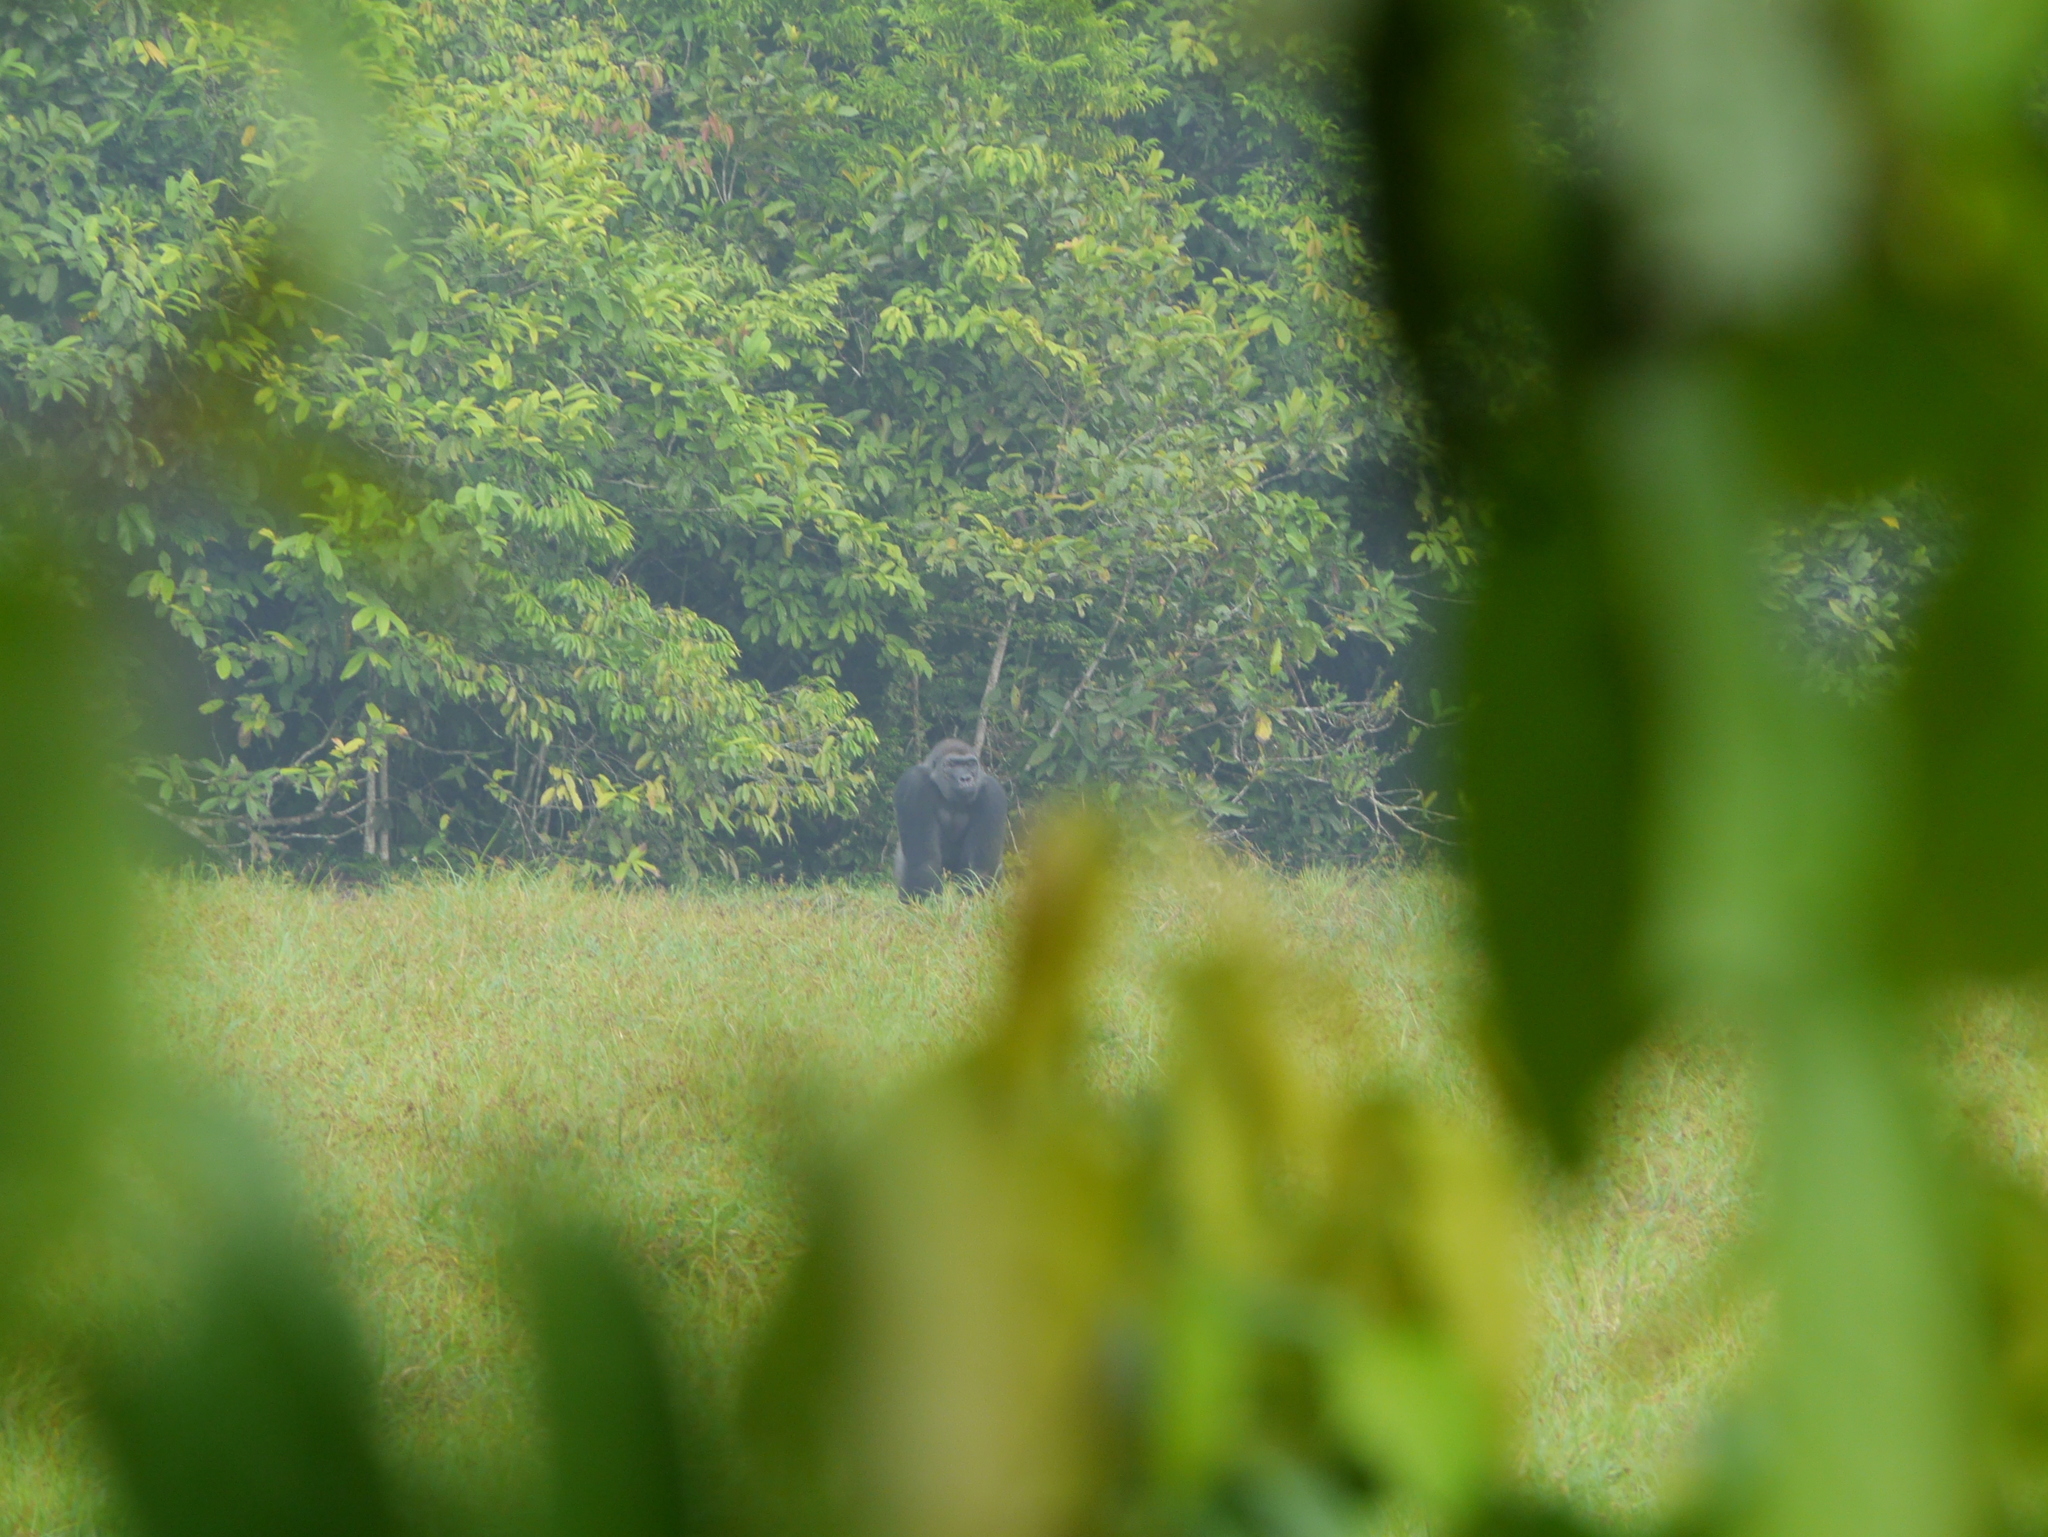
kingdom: Animalia
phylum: Chordata
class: Mammalia
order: Primates
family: Hominidae
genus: Gorilla
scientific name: Gorilla gorilla
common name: Western gorilla
